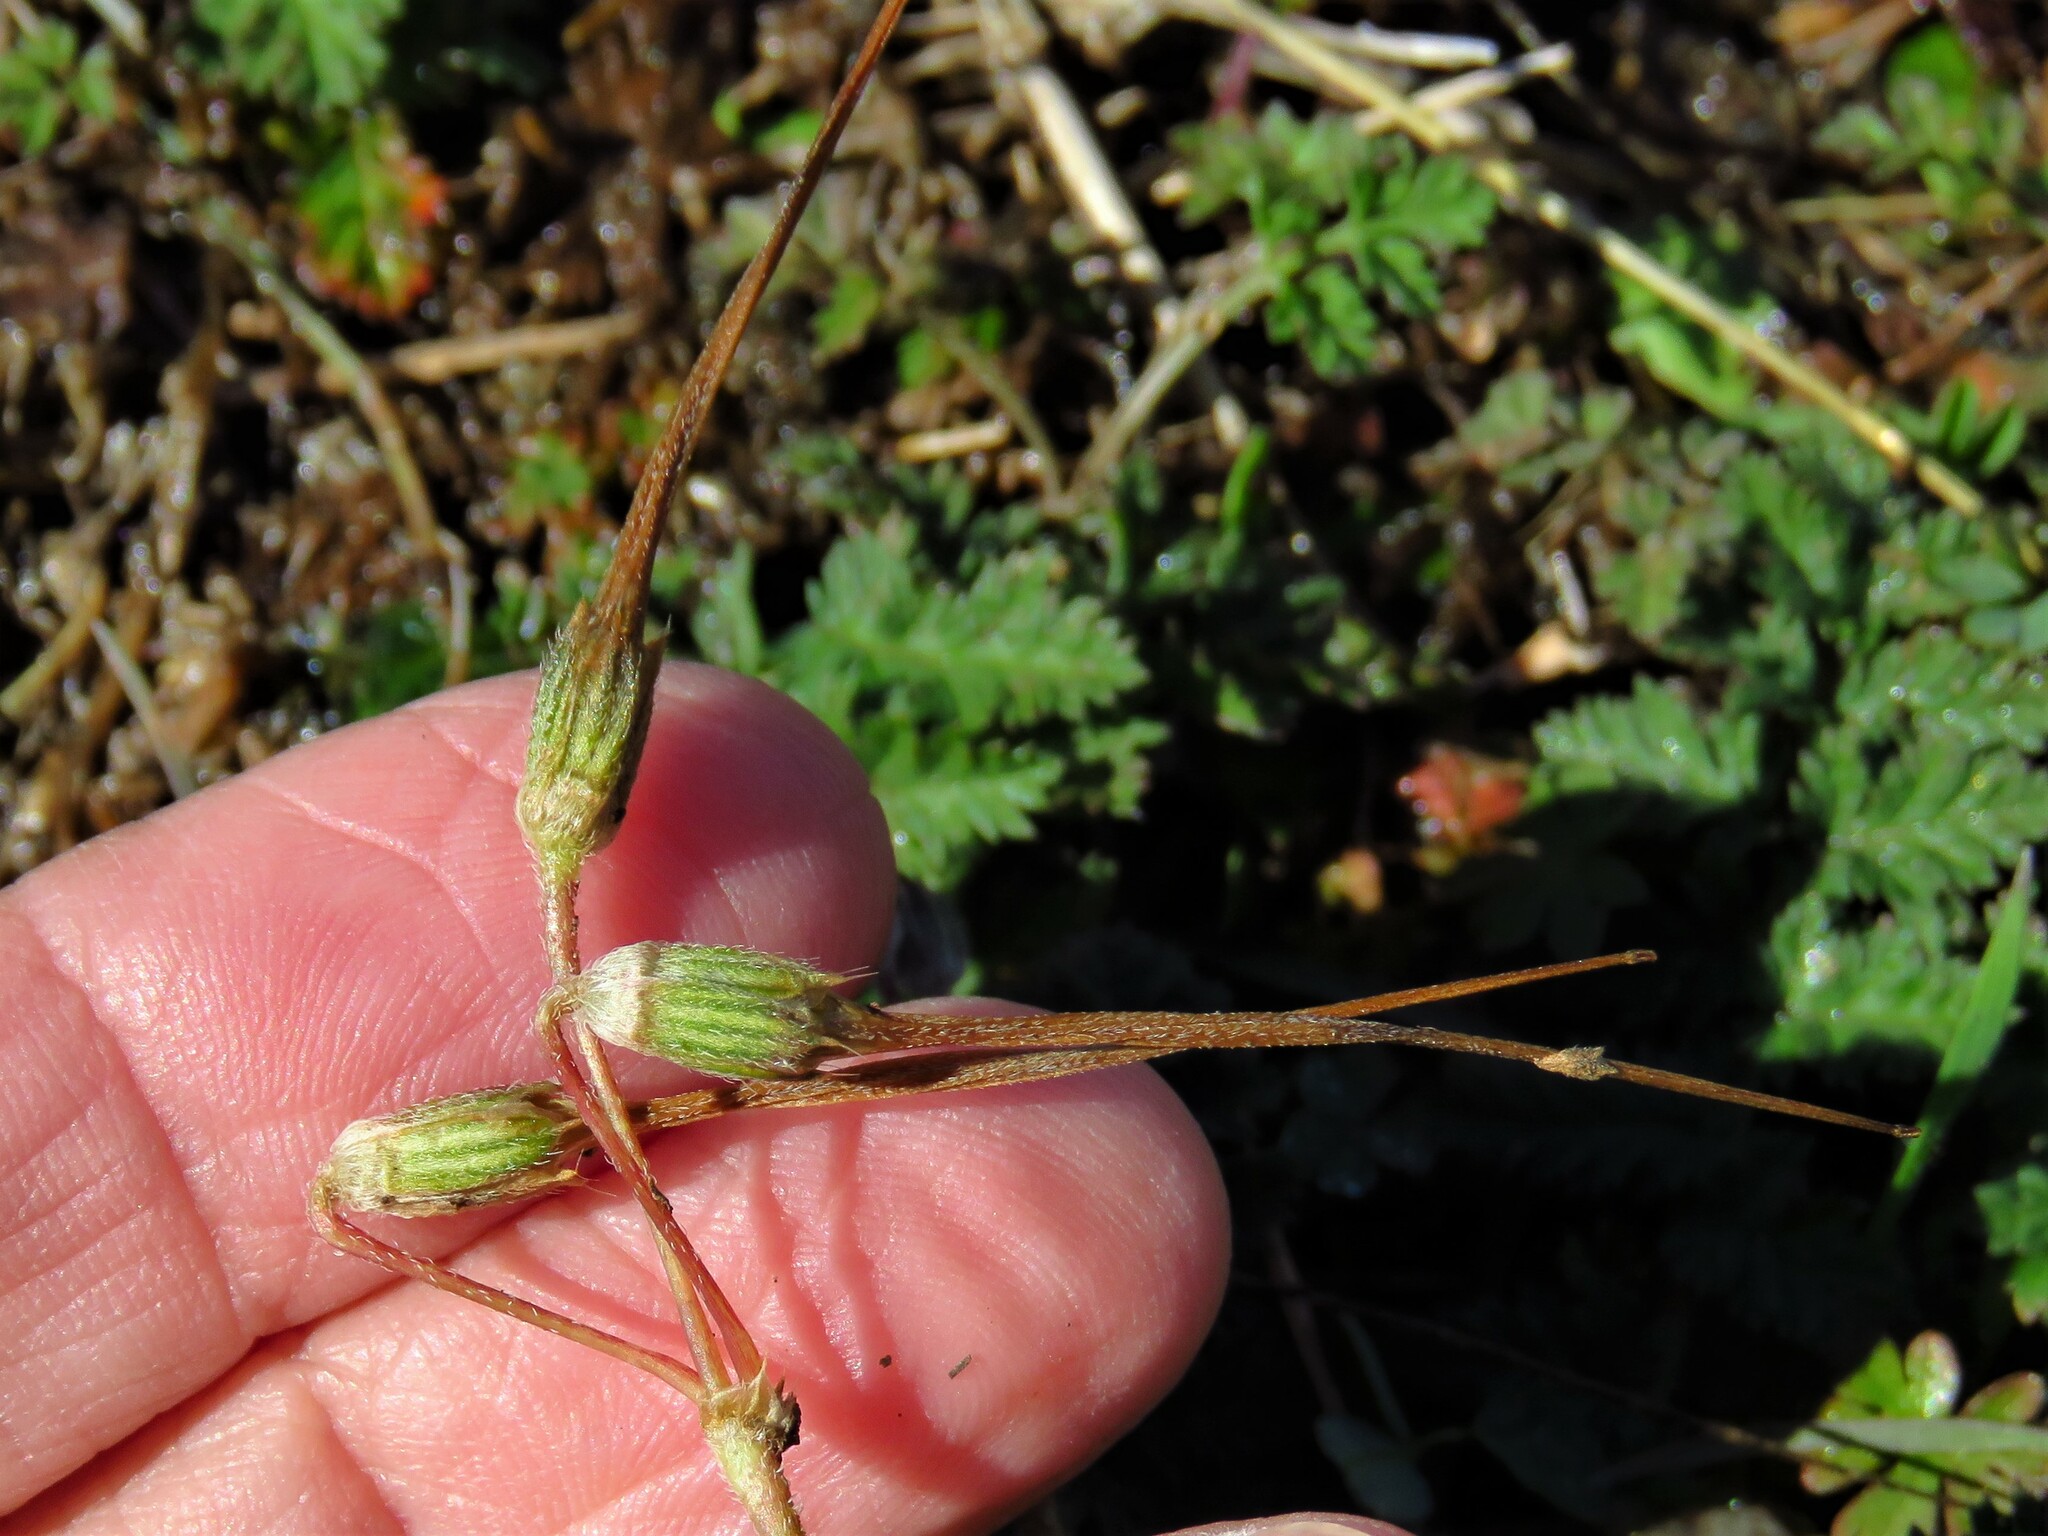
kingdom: Plantae
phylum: Tracheophyta
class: Magnoliopsida
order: Geraniales
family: Geraniaceae
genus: Erodium
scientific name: Erodium cicutarium
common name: Common stork's-bill
